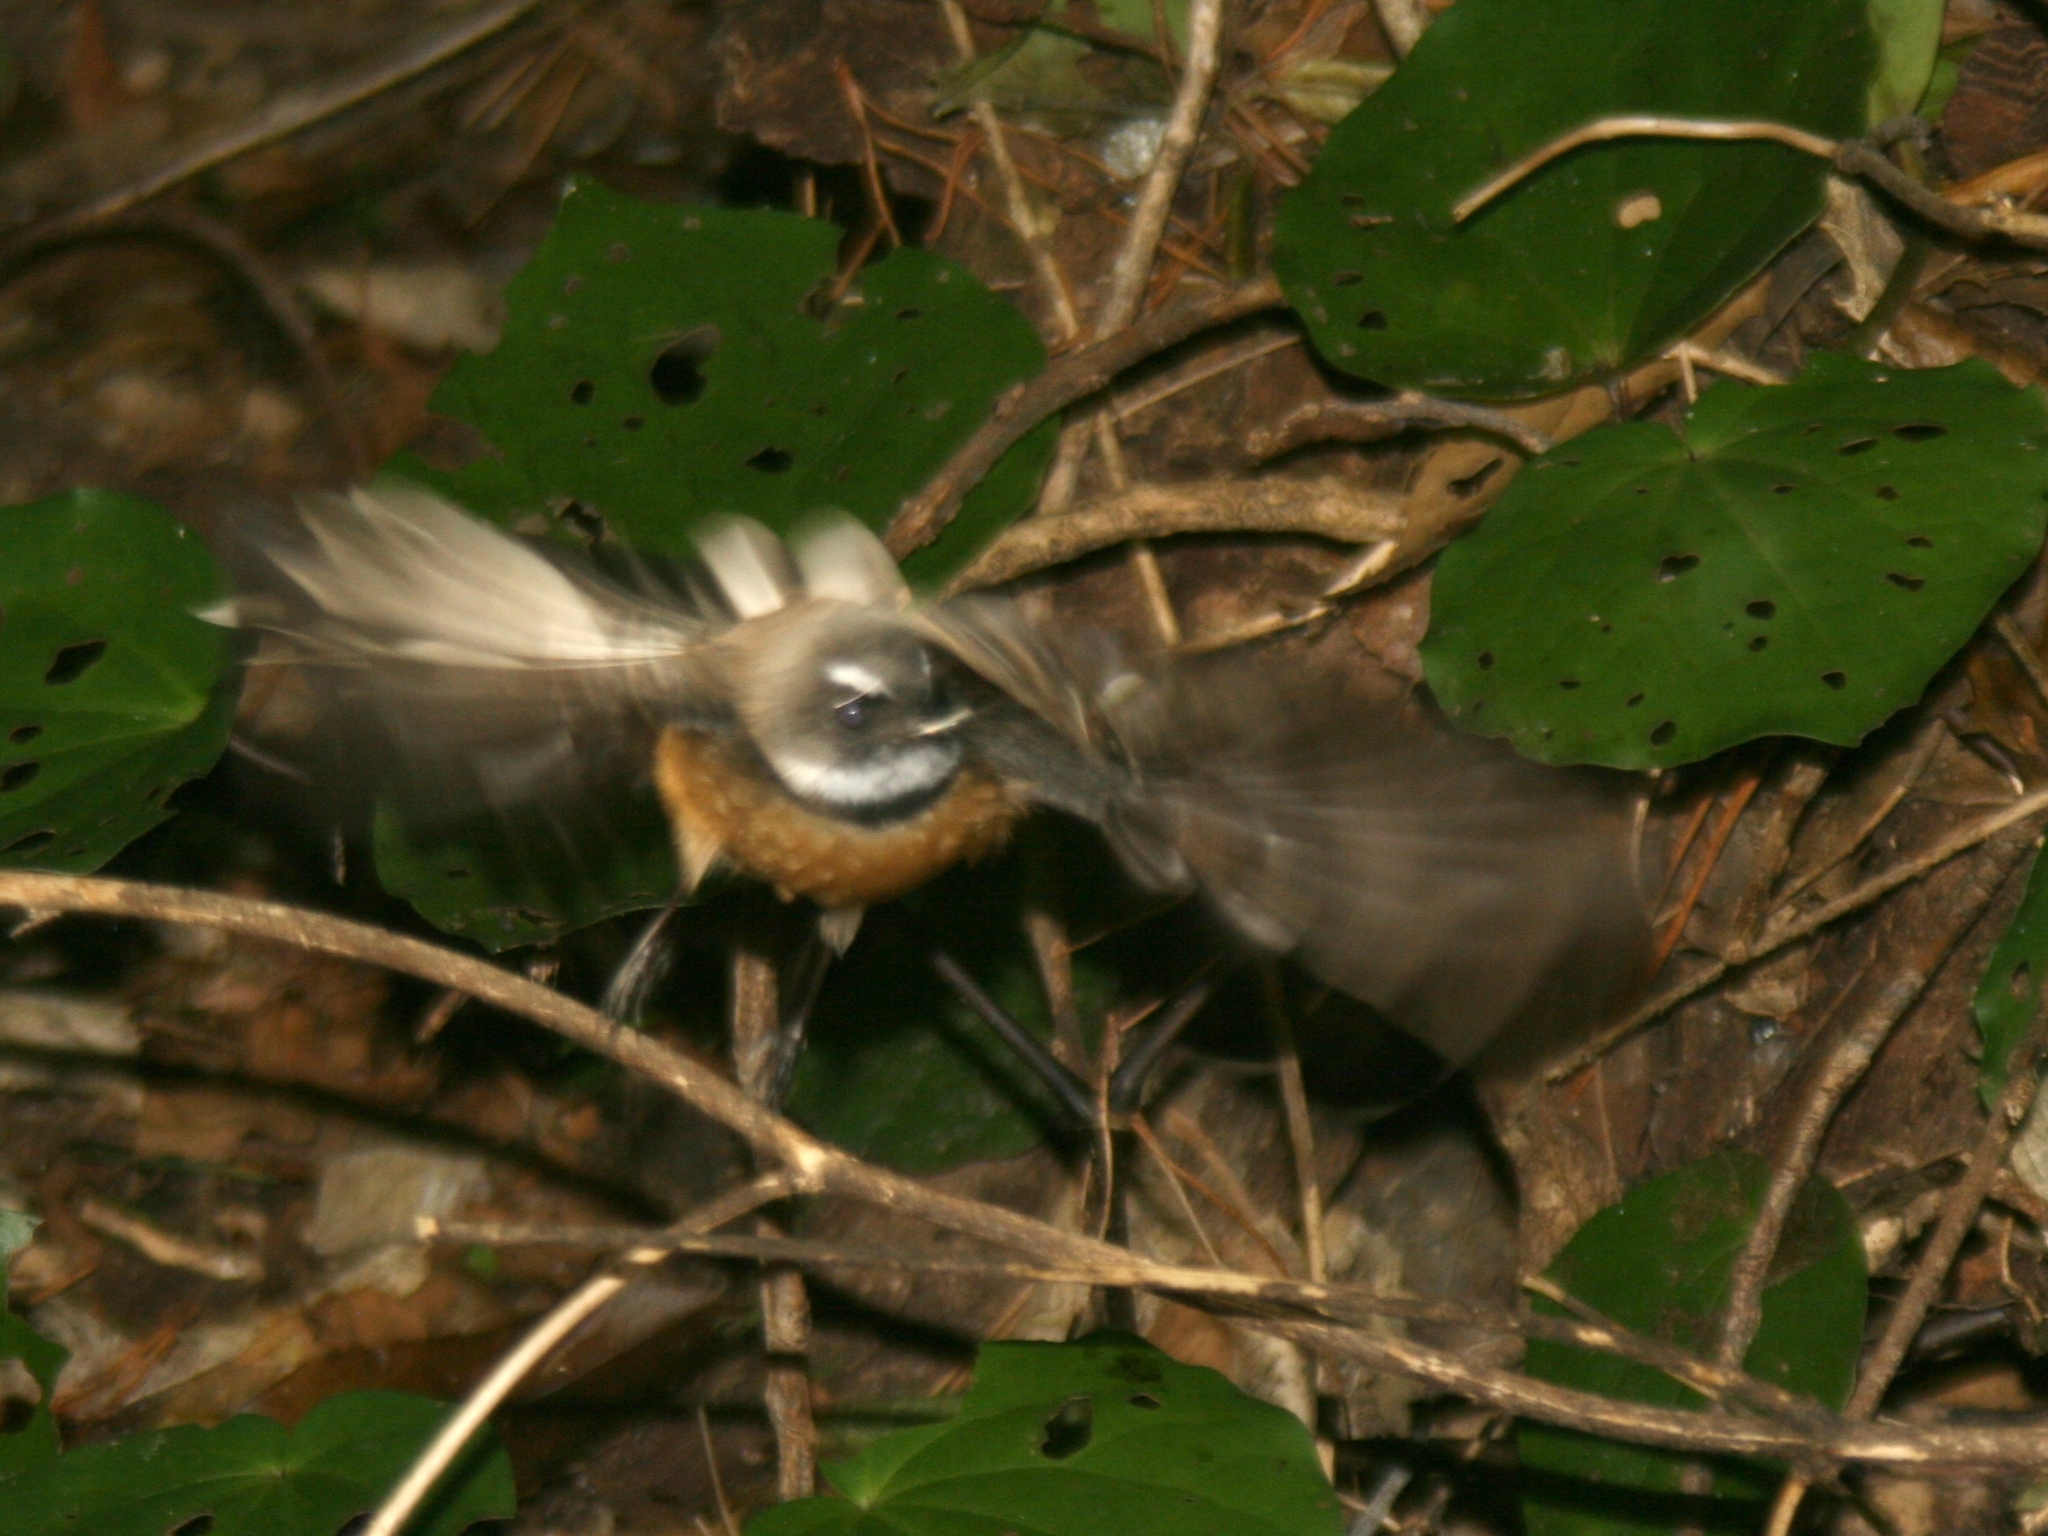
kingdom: Animalia
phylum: Chordata
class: Aves
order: Passeriformes
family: Rhipiduridae
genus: Rhipidura
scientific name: Rhipidura fuliginosa
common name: New zealand fantail
